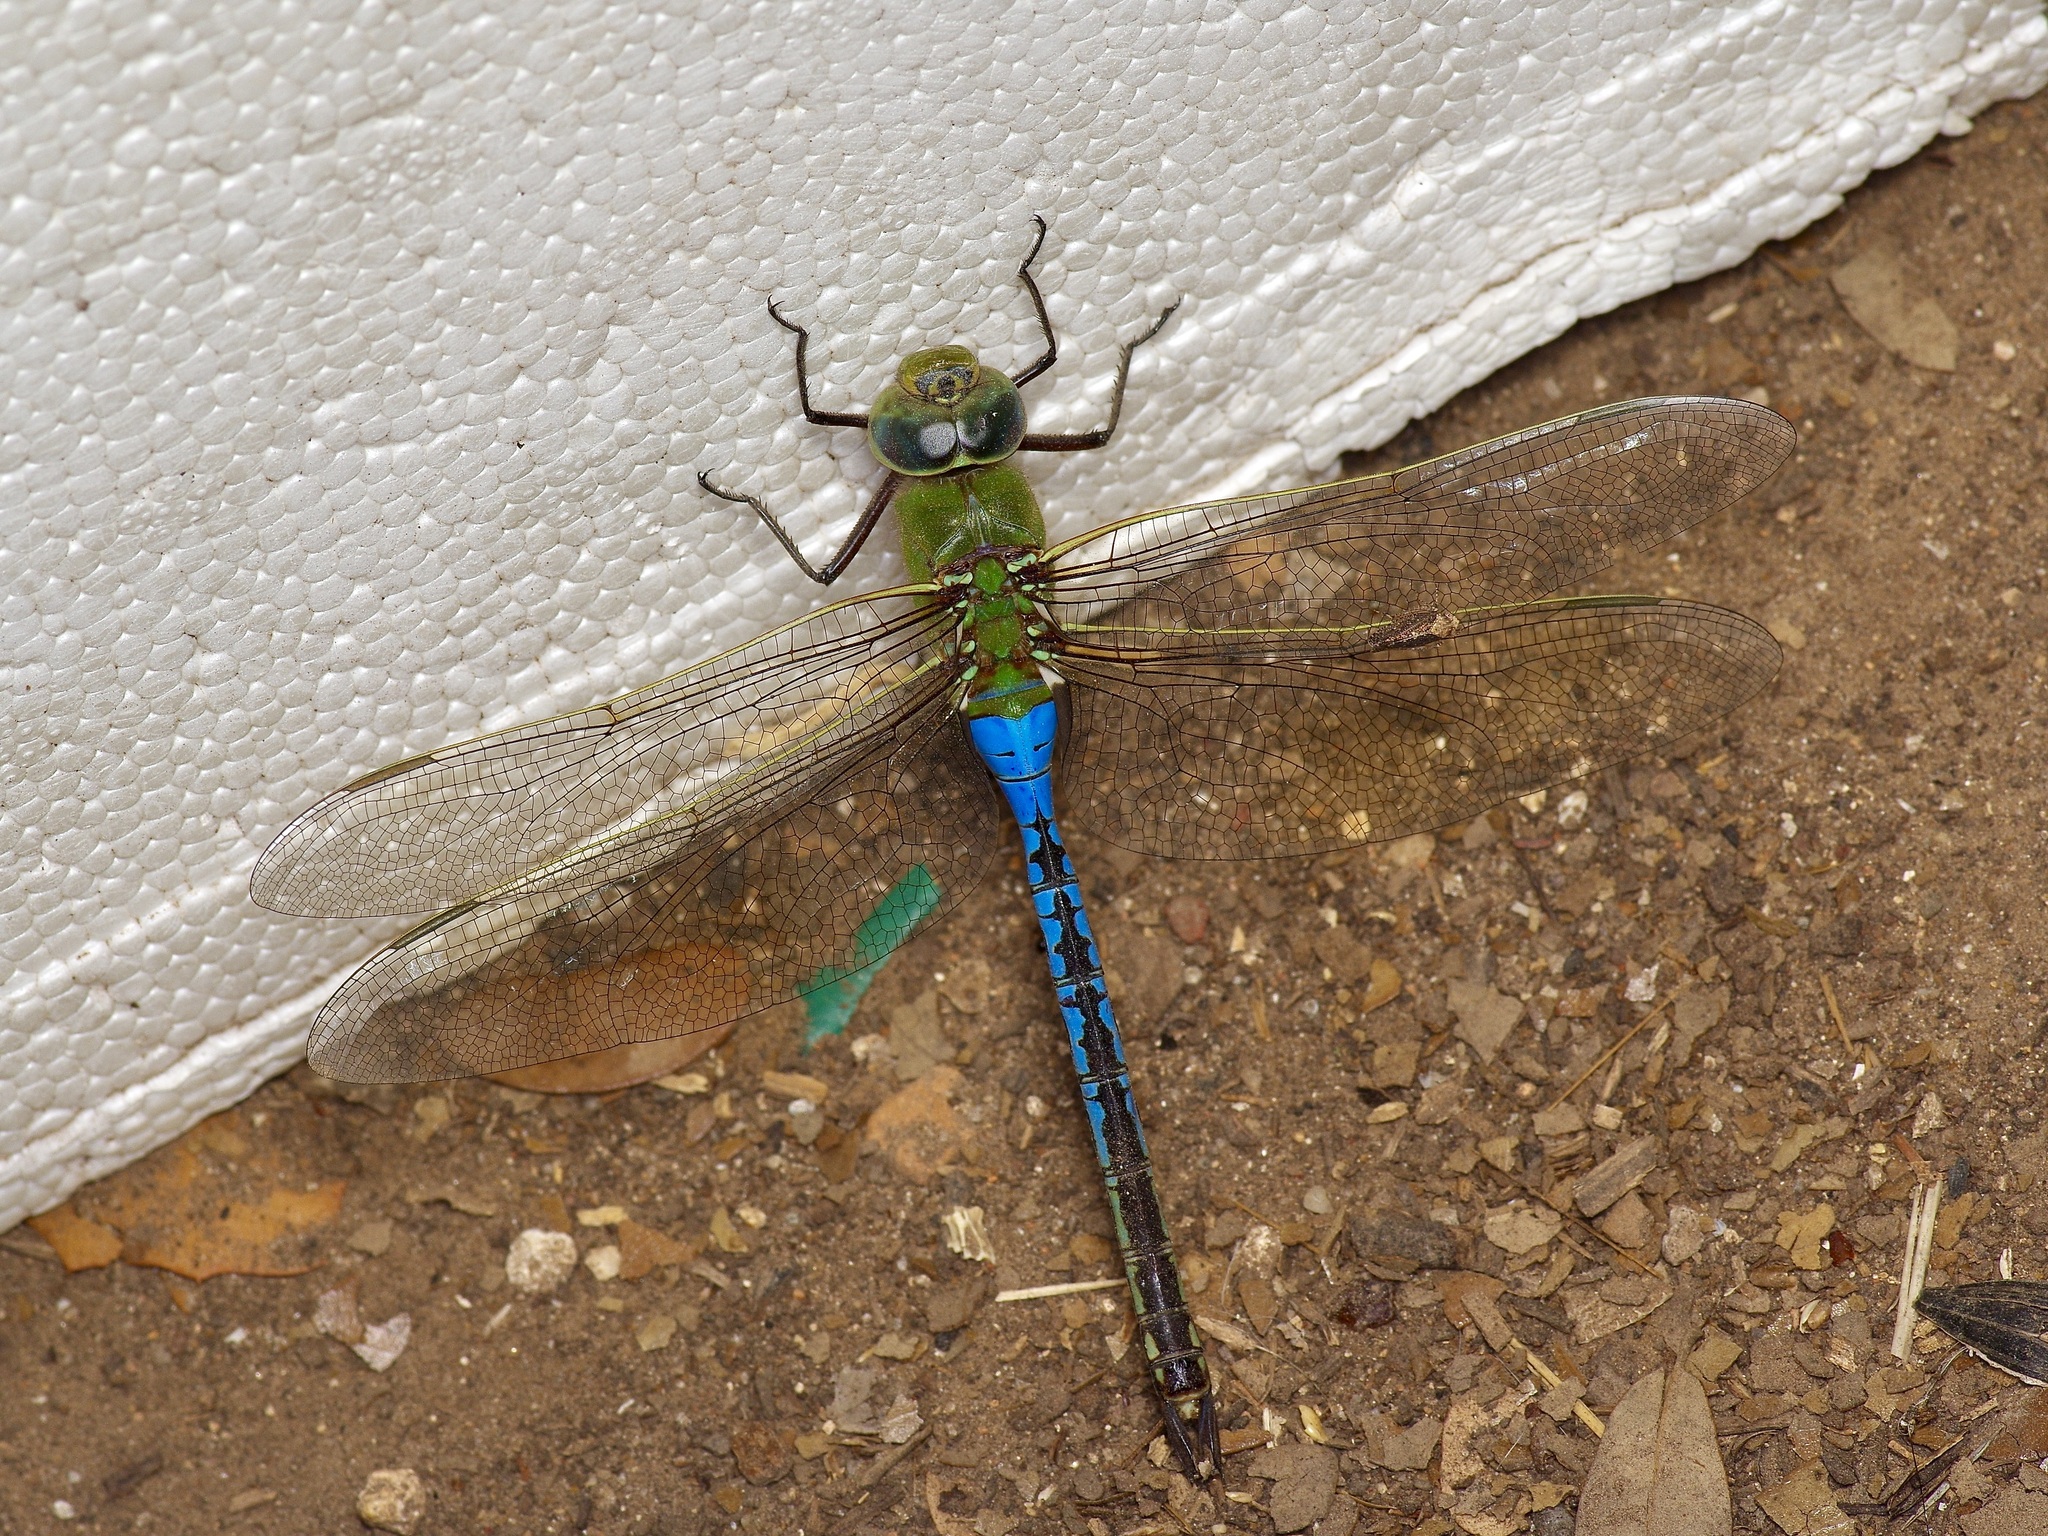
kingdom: Animalia
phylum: Arthropoda
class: Insecta
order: Odonata
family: Aeshnidae
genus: Anax
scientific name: Anax junius
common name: Common green darner
